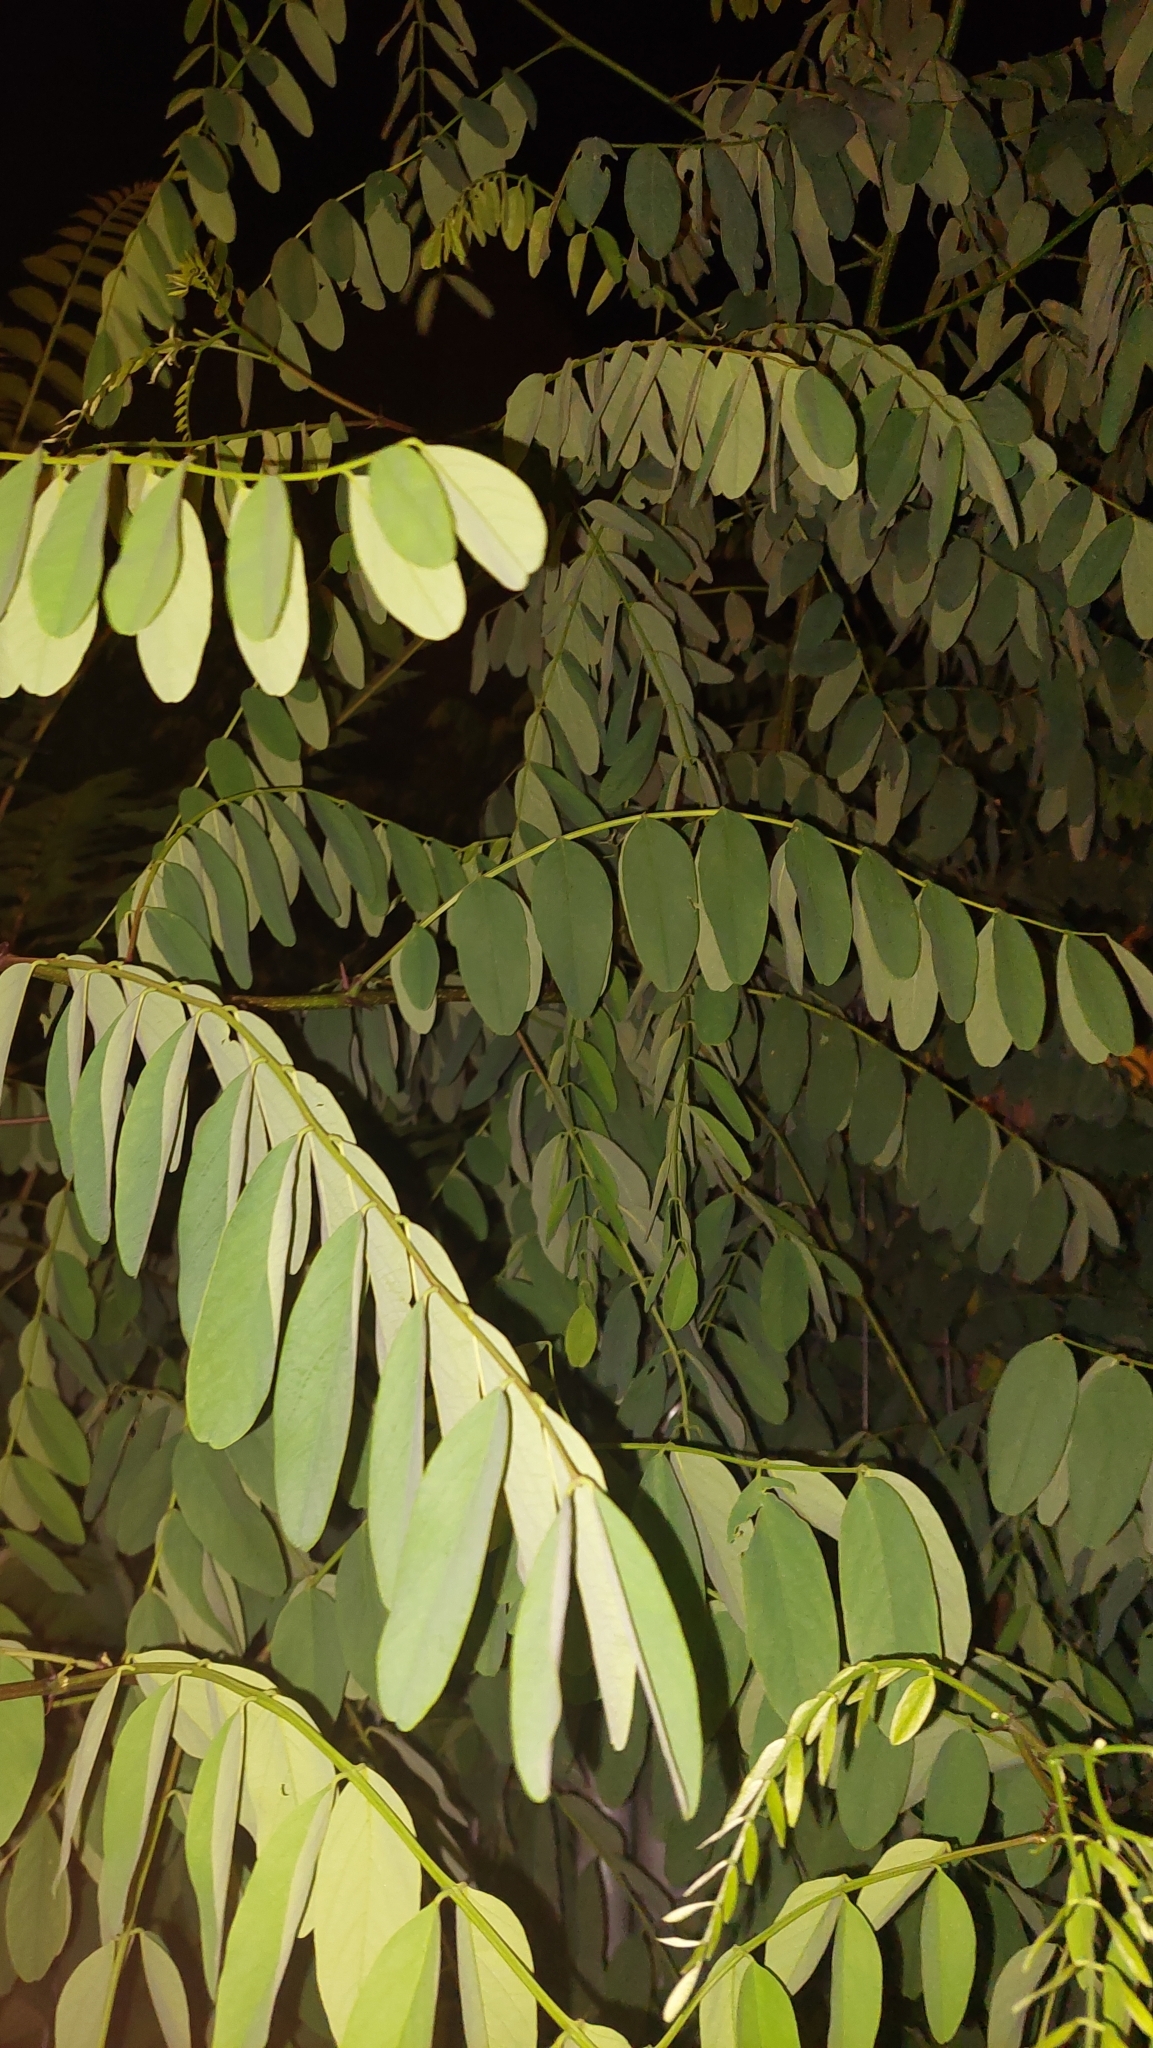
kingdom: Plantae
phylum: Tracheophyta
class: Magnoliopsida
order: Fabales
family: Fabaceae
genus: Robinia
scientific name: Robinia pseudoacacia
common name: Black locust
